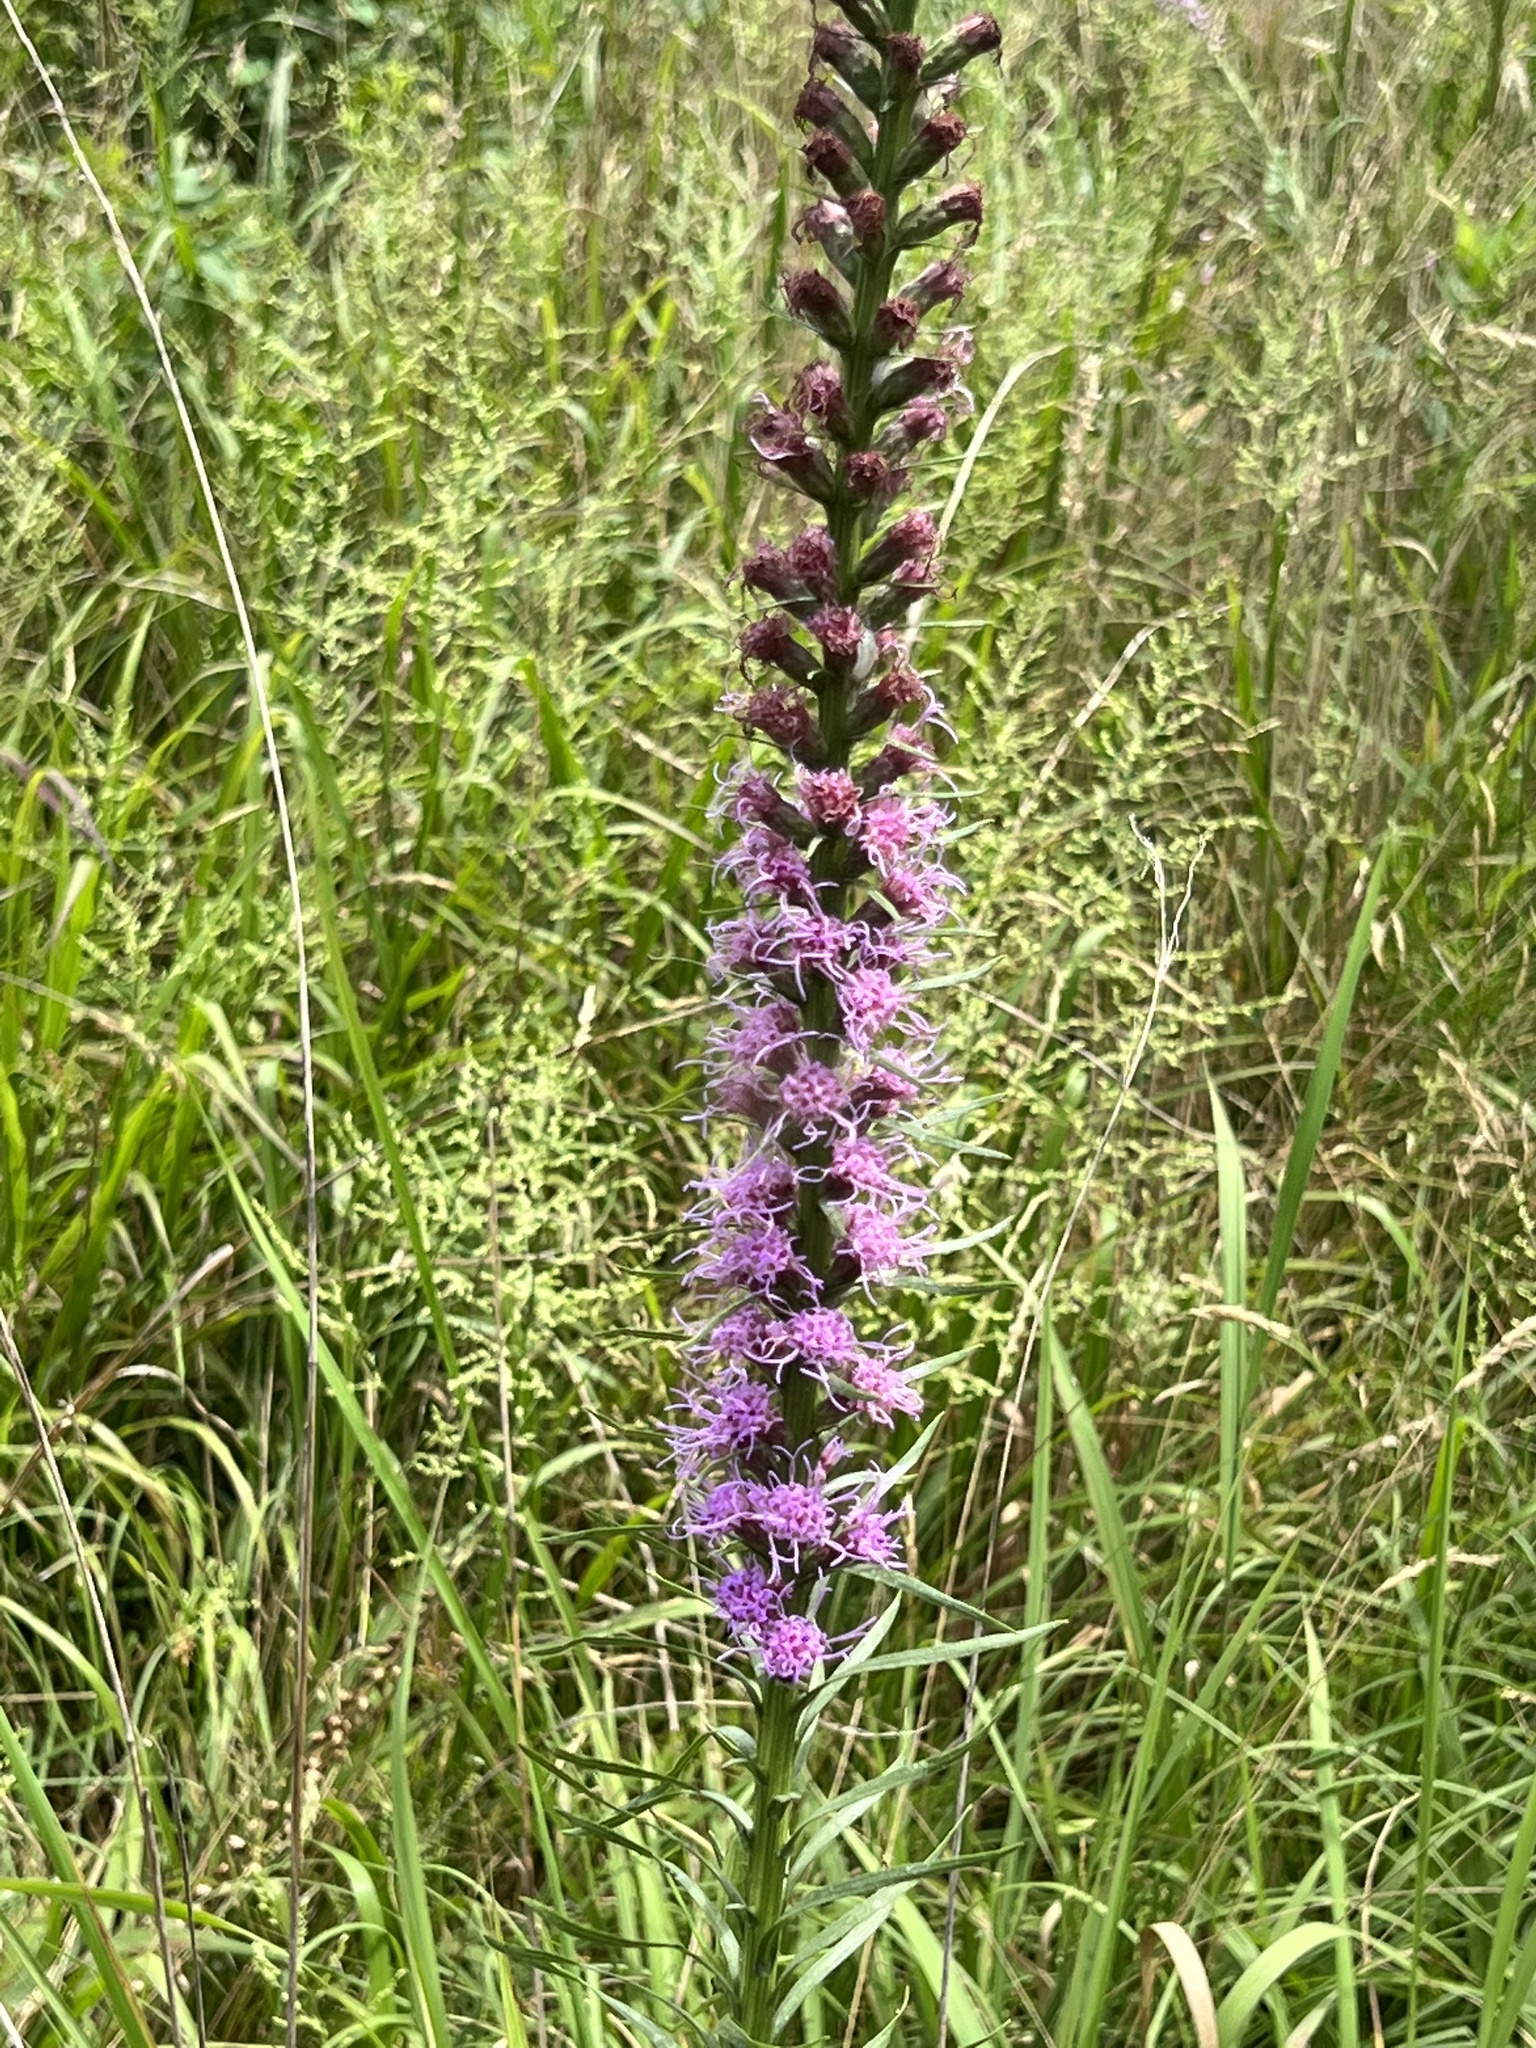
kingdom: Plantae
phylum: Tracheophyta
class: Magnoliopsida
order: Asterales
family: Asteraceae
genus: Liatris
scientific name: Liatris spicata
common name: Florist gayfeather
